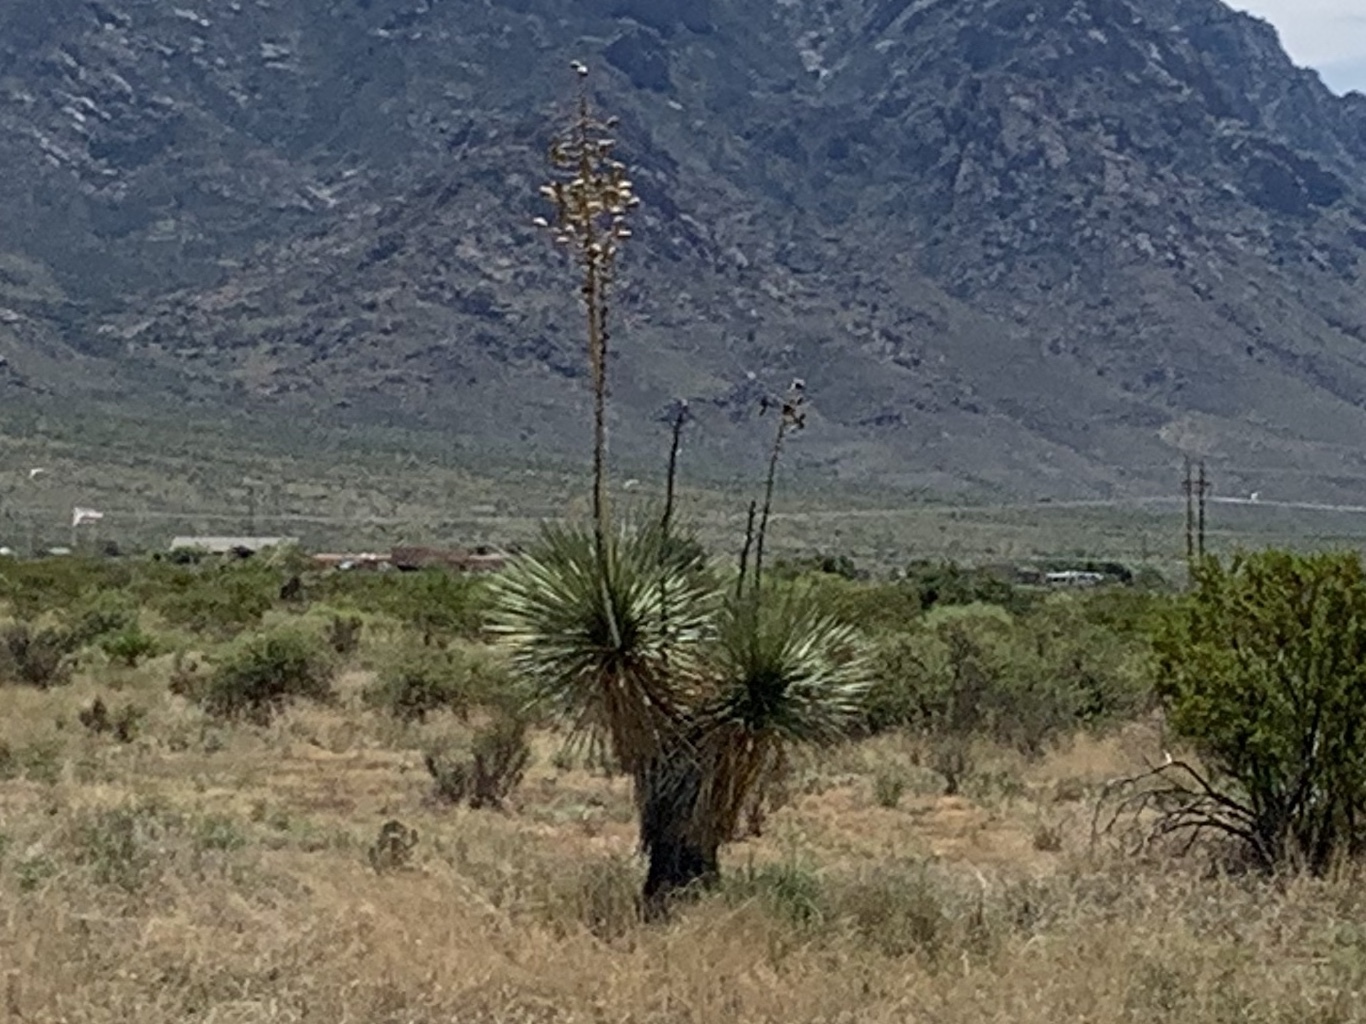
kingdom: Plantae
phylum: Tracheophyta
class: Liliopsida
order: Asparagales
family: Asparagaceae
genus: Yucca
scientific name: Yucca elata
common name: Palmella
